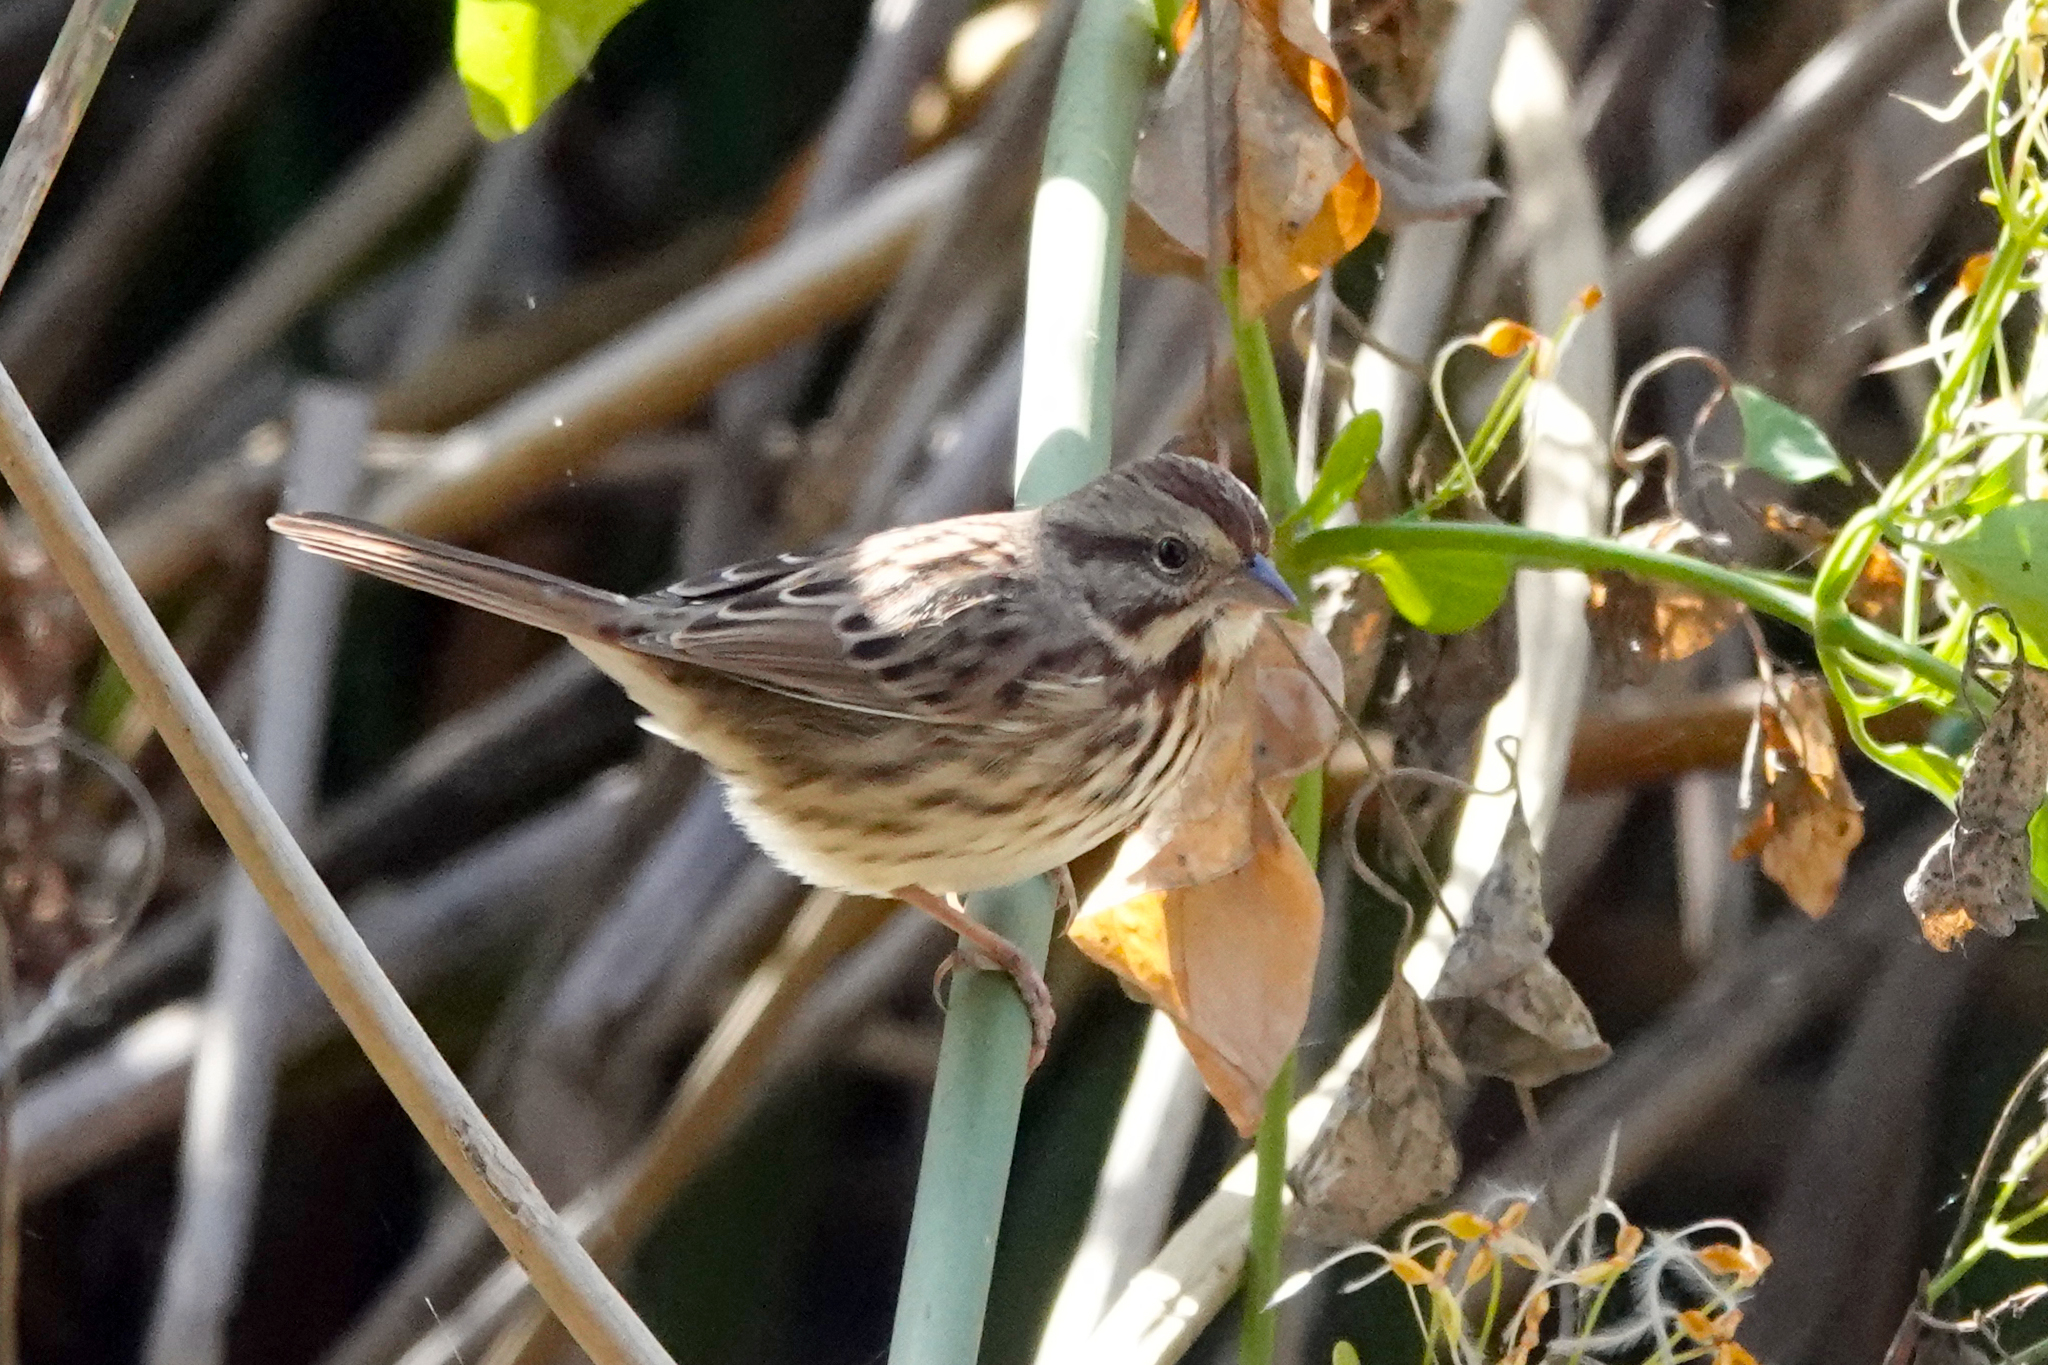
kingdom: Animalia
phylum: Chordata
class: Aves
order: Passeriformes
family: Passerellidae
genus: Melospiza
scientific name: Melospiza melodia
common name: Song sparrow
